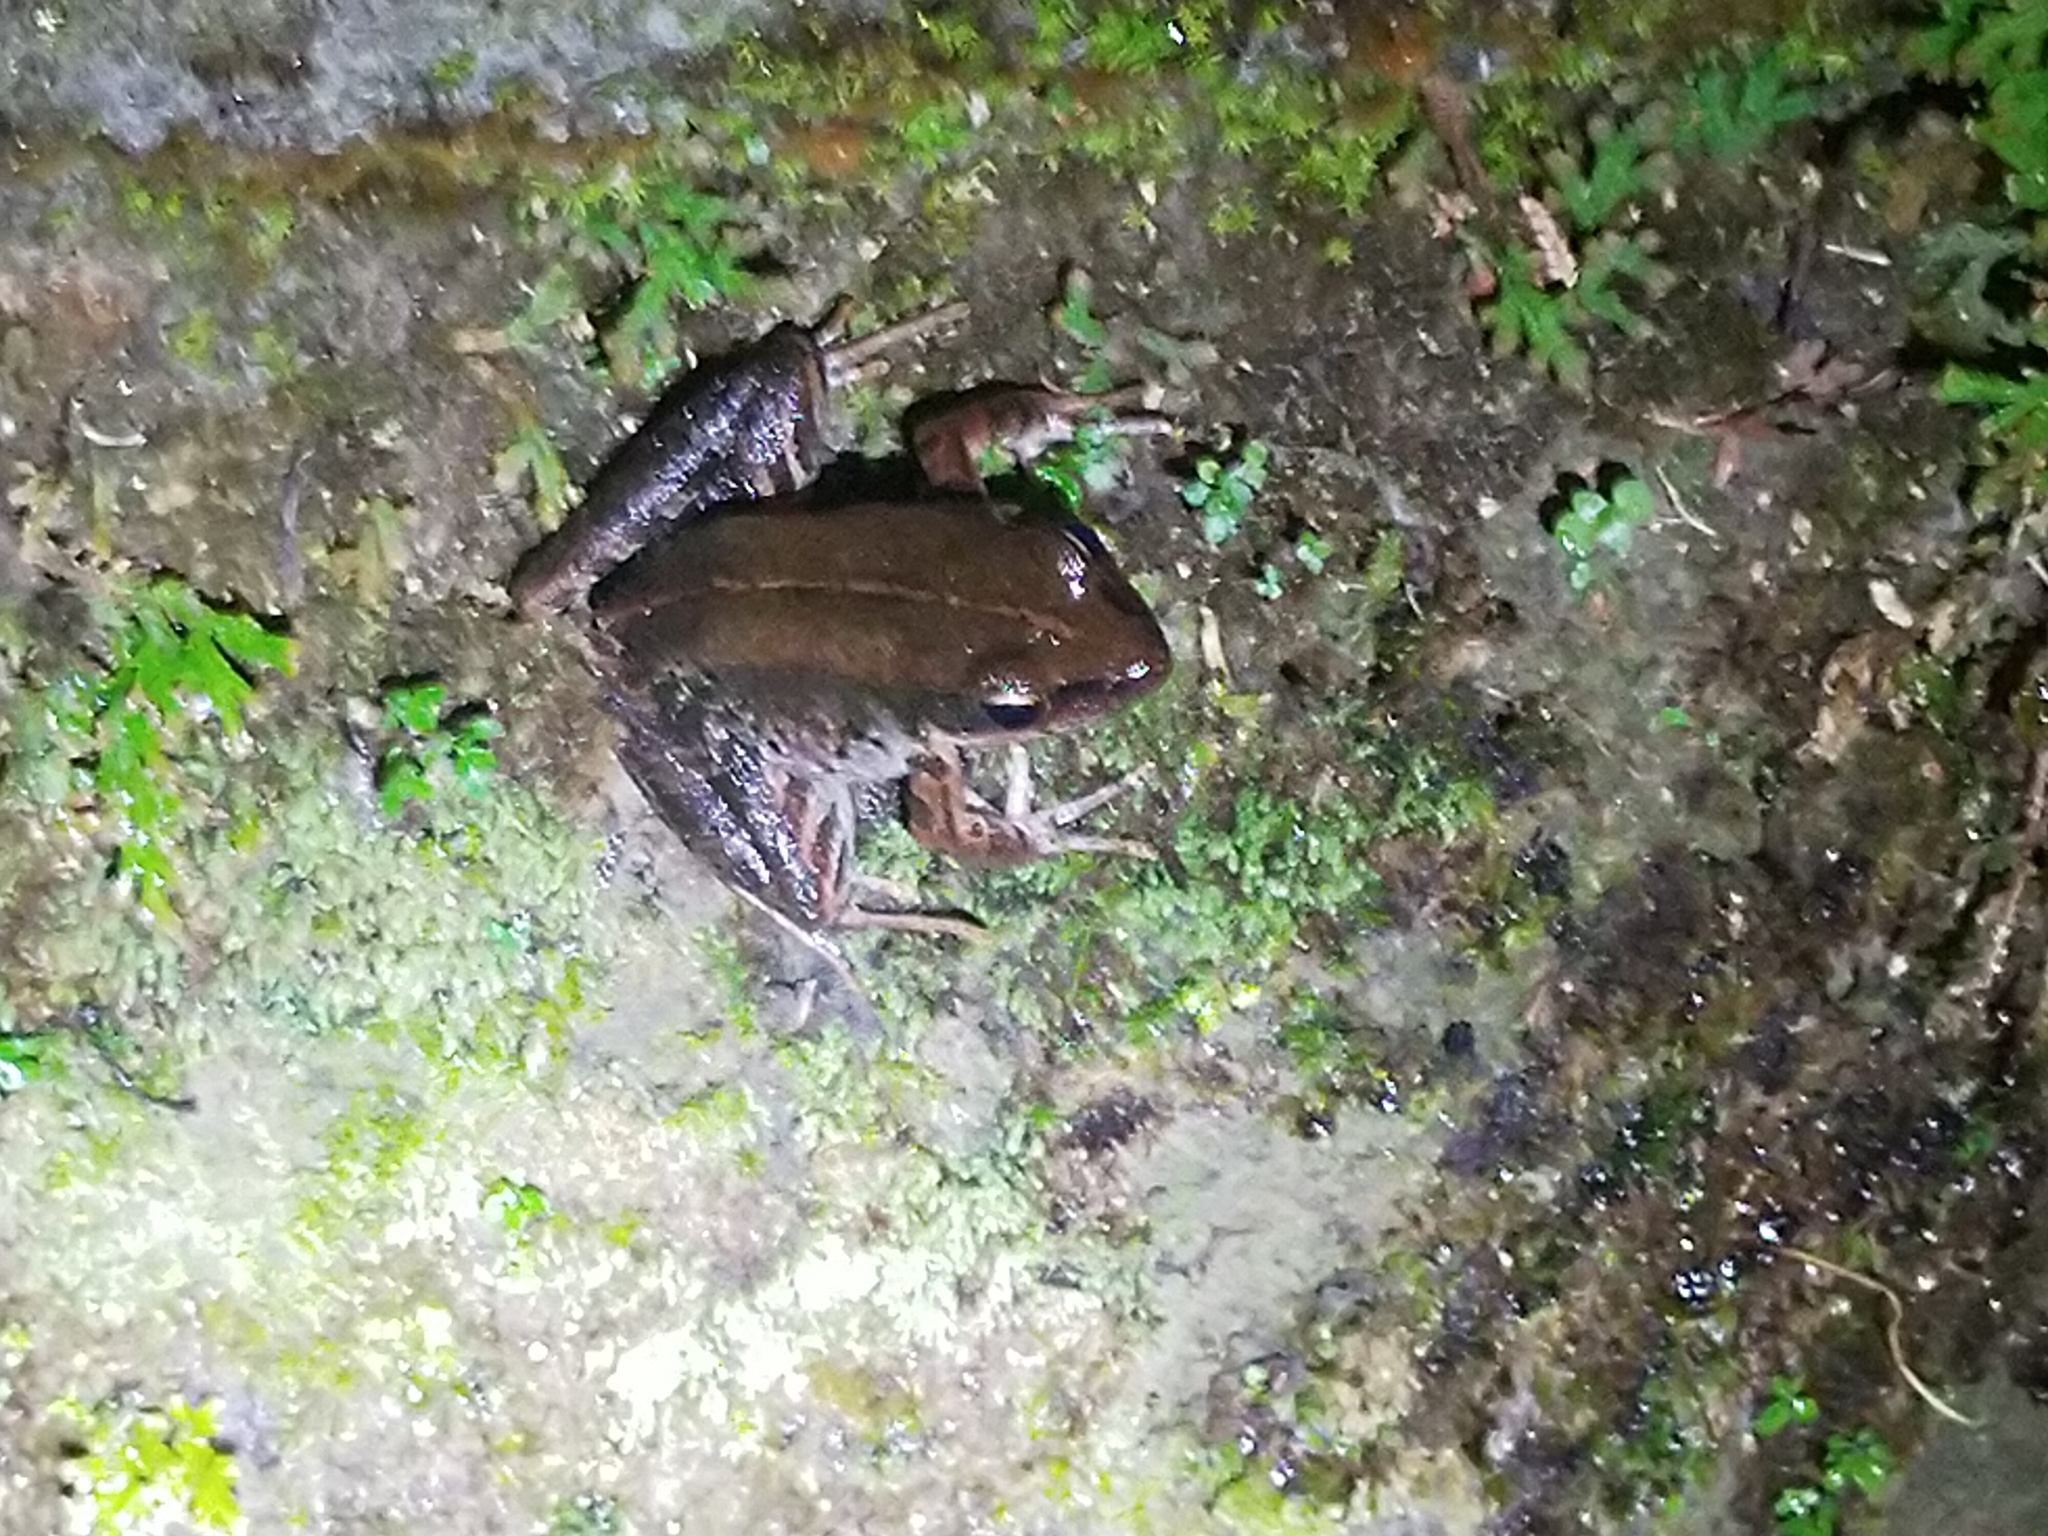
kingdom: Animalia
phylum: Chordata
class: Amphibia
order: Anura
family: Ranidae
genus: Nidirana
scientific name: Nidirana adenopleura
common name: Olive frog
